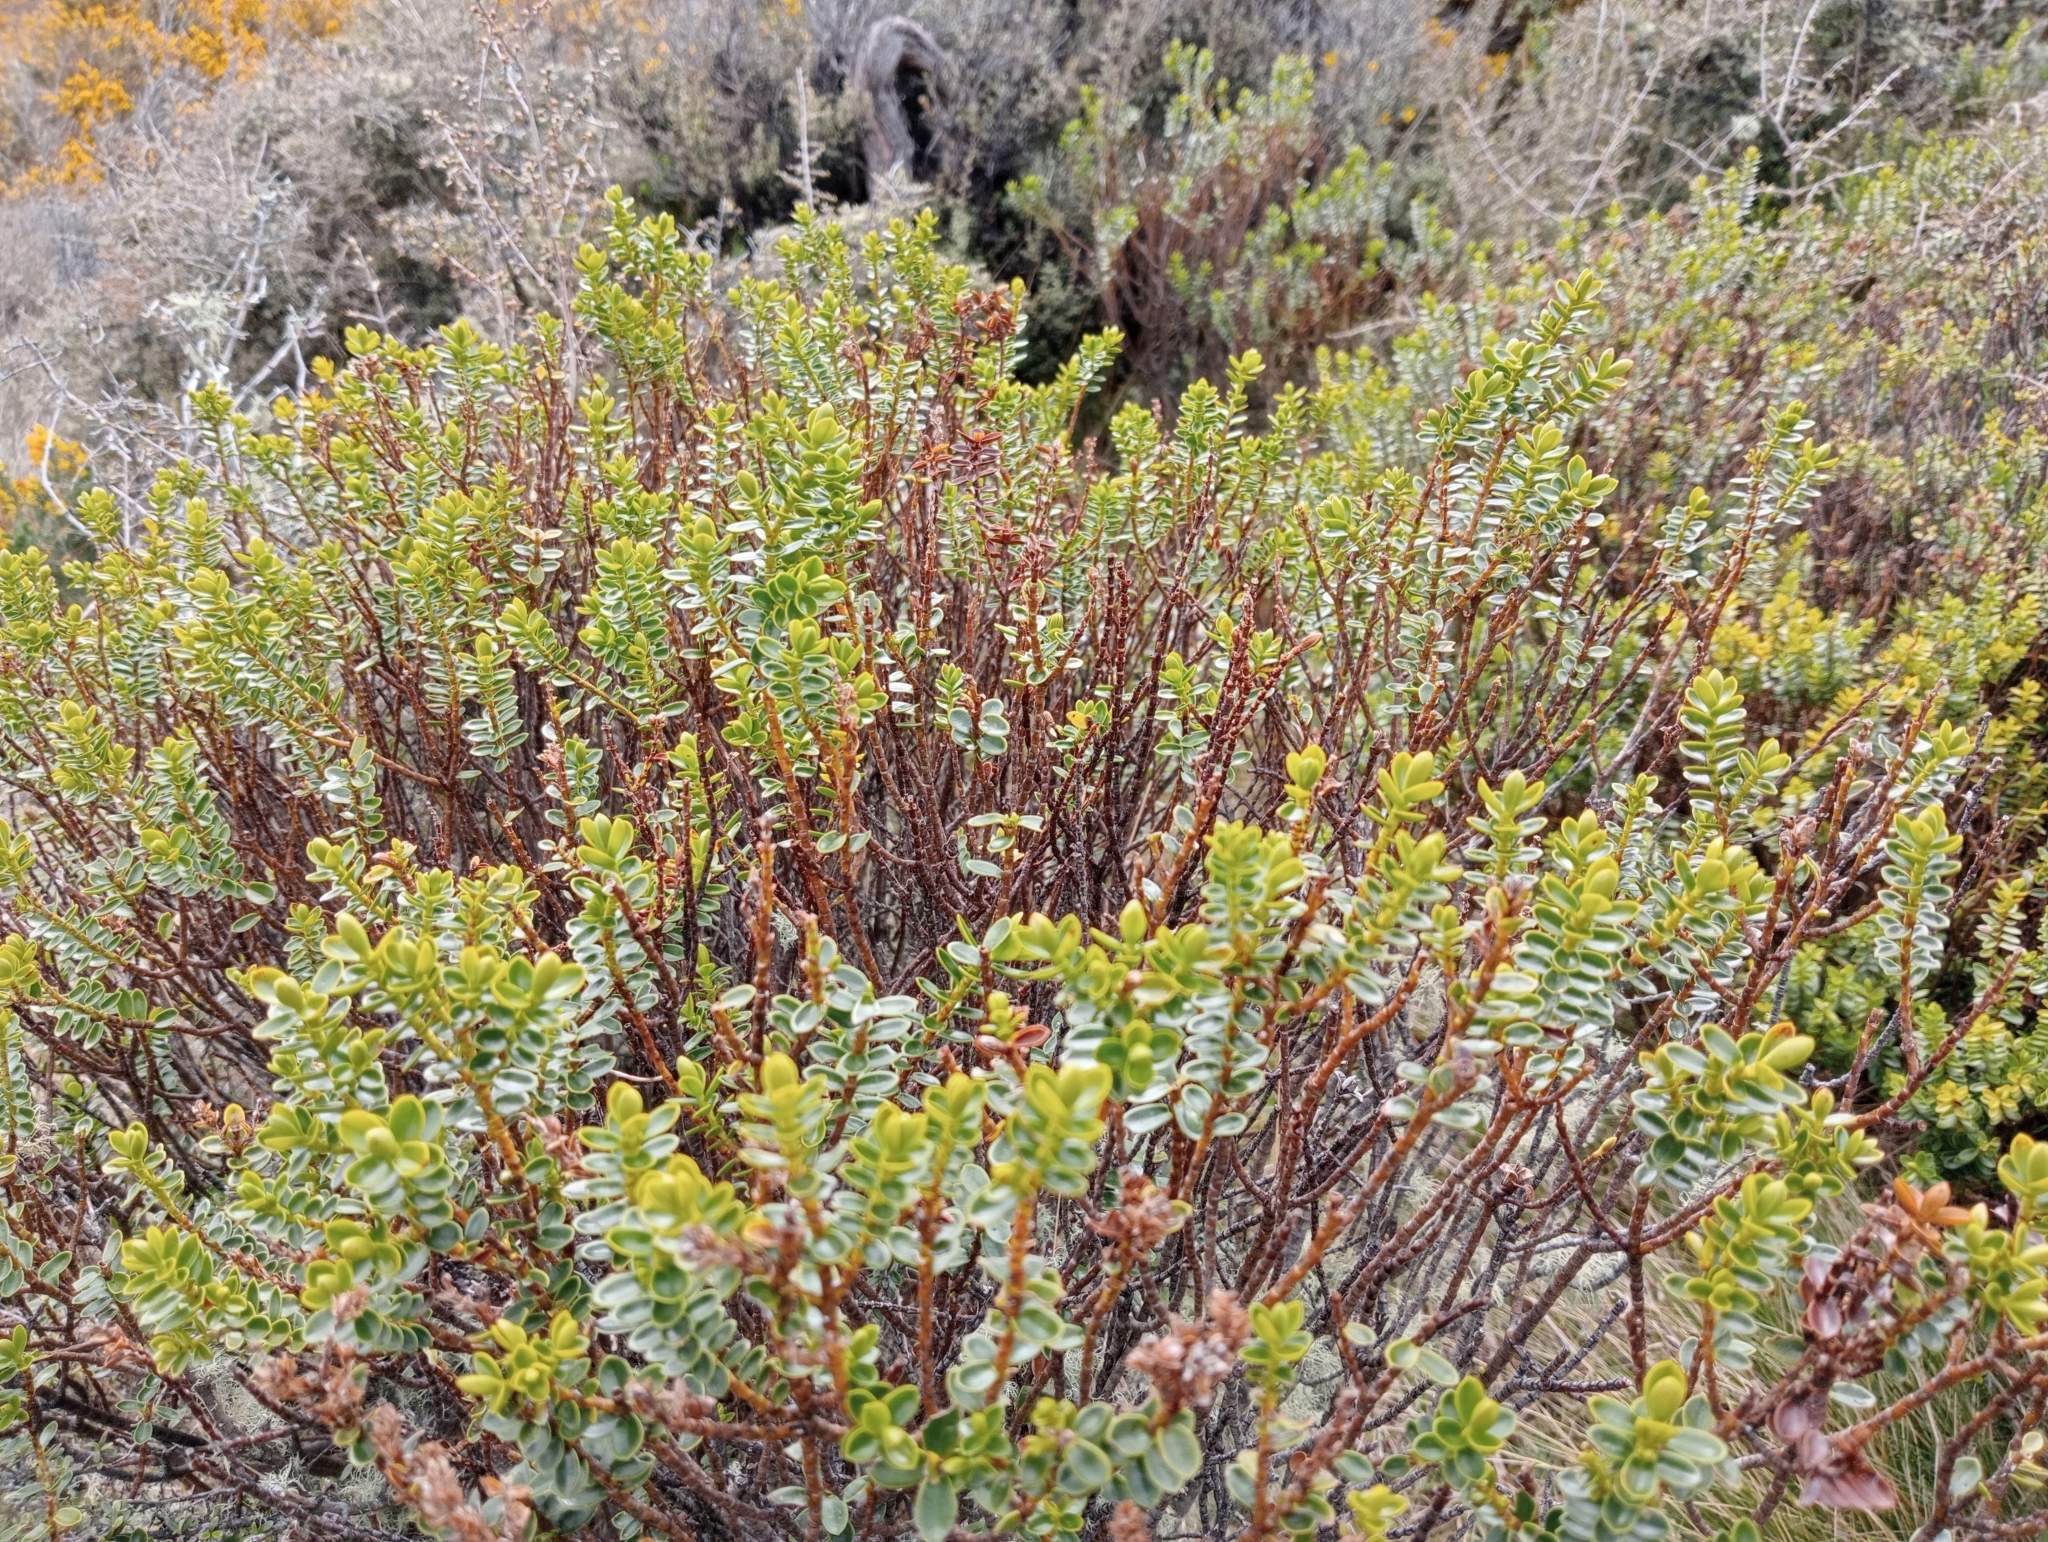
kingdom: Plantae
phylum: Tracheophyta
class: Magnoliopsida
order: Lamiales
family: Plantaginaceae
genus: Veronica
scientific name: Veronica odora
